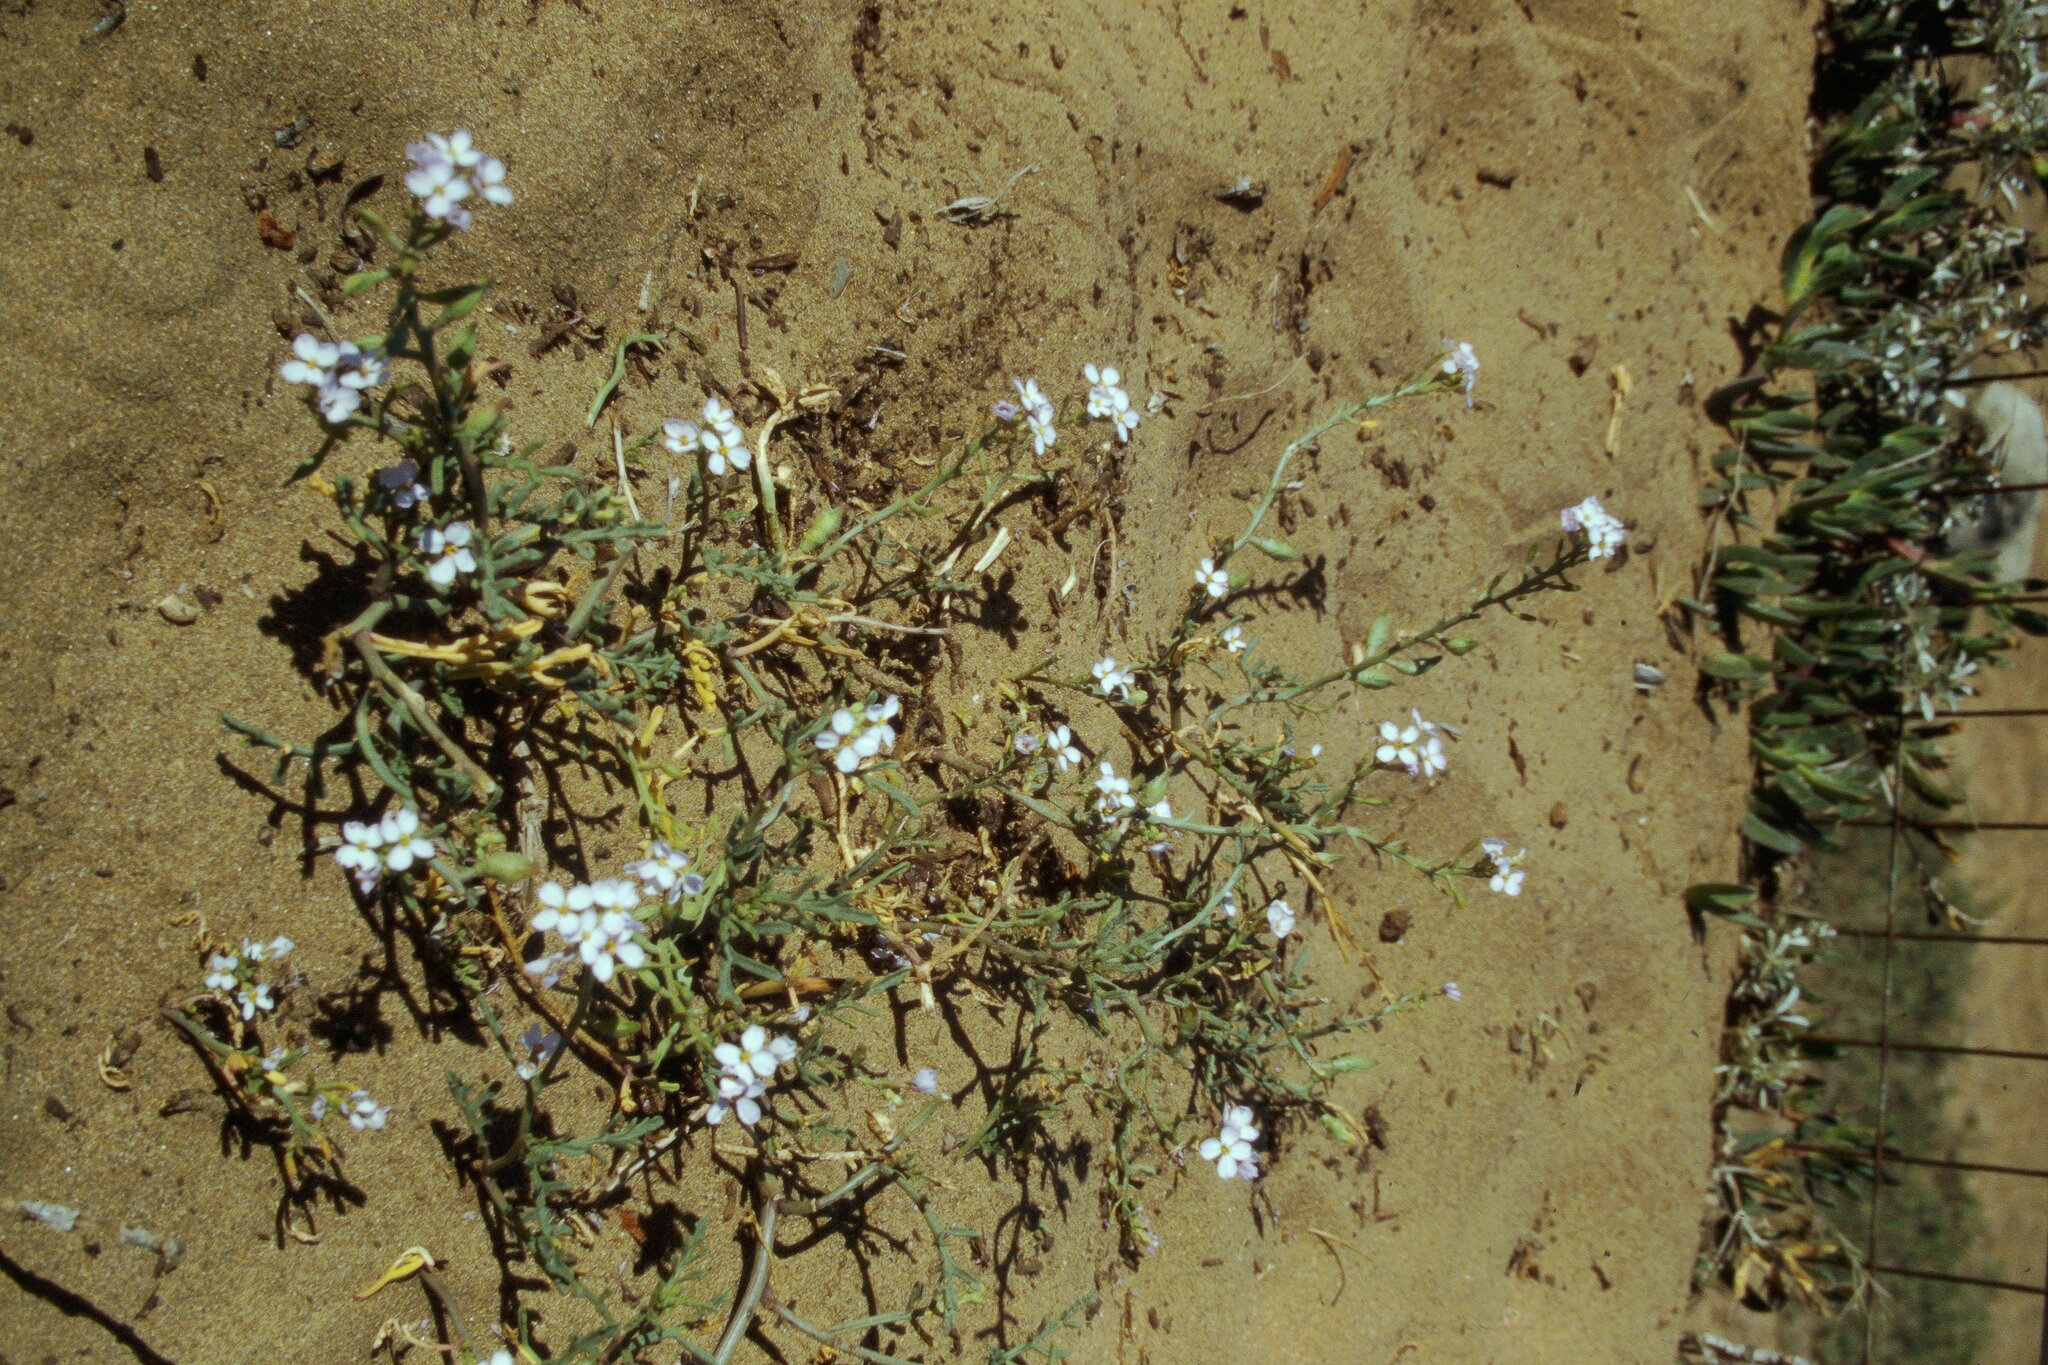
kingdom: Plantae
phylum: Tracheophyta
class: Magnoliopsida
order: Brassicales
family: Brassicaceae
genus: Cakile
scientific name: Cakile maritima
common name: Sea rocket
